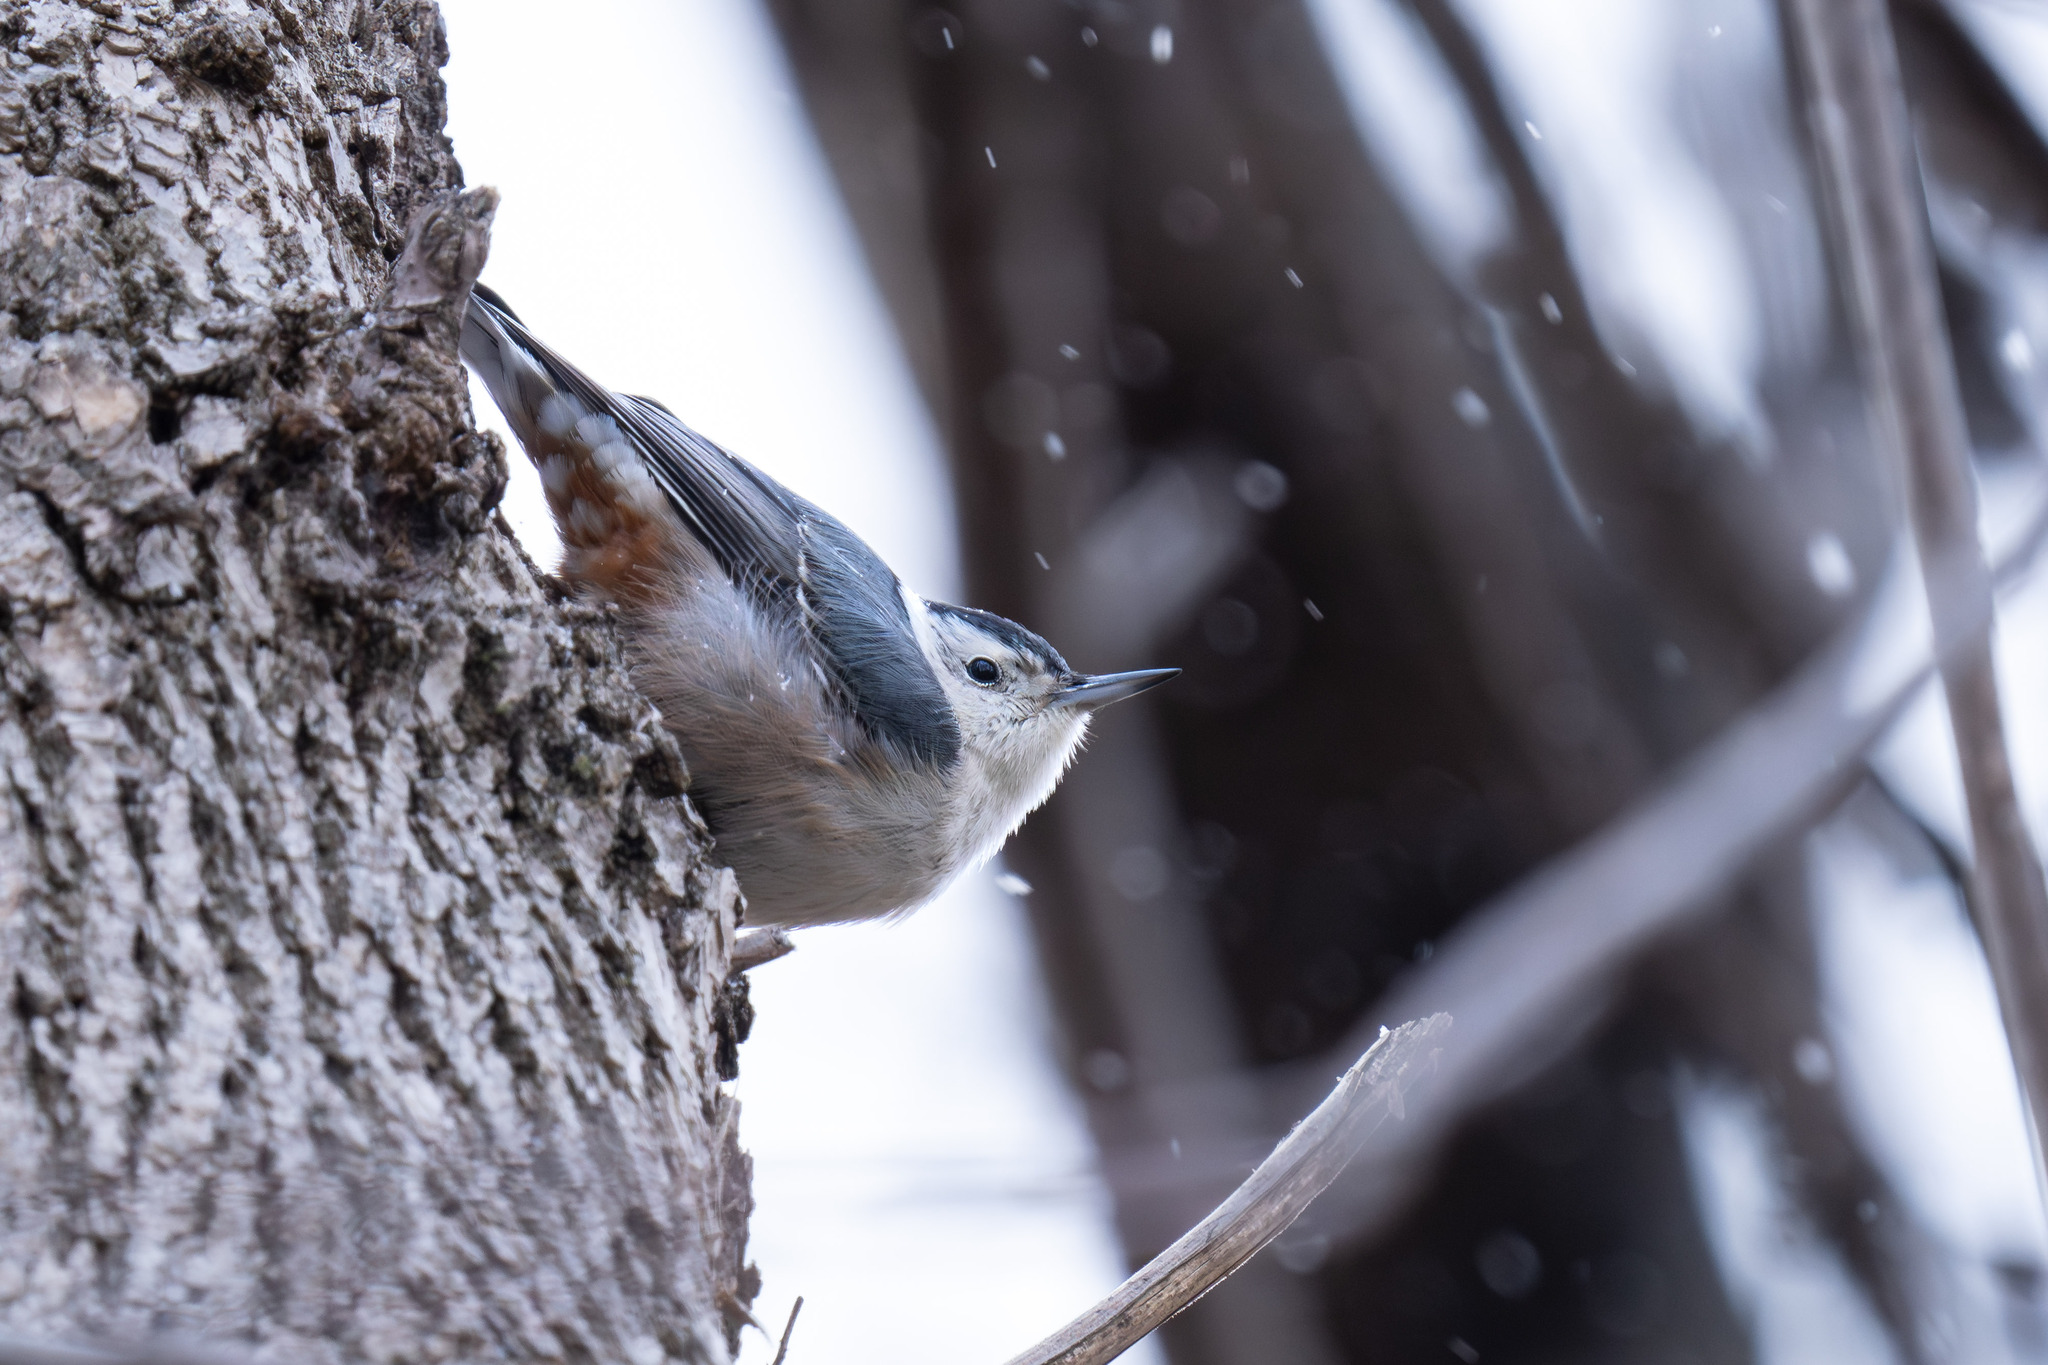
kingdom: Animalia
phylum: Chordata
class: Aves
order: Passeriformes
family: Sittidae
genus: Sitta
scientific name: Sitta carolinensis
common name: White-breasted nuthatch
